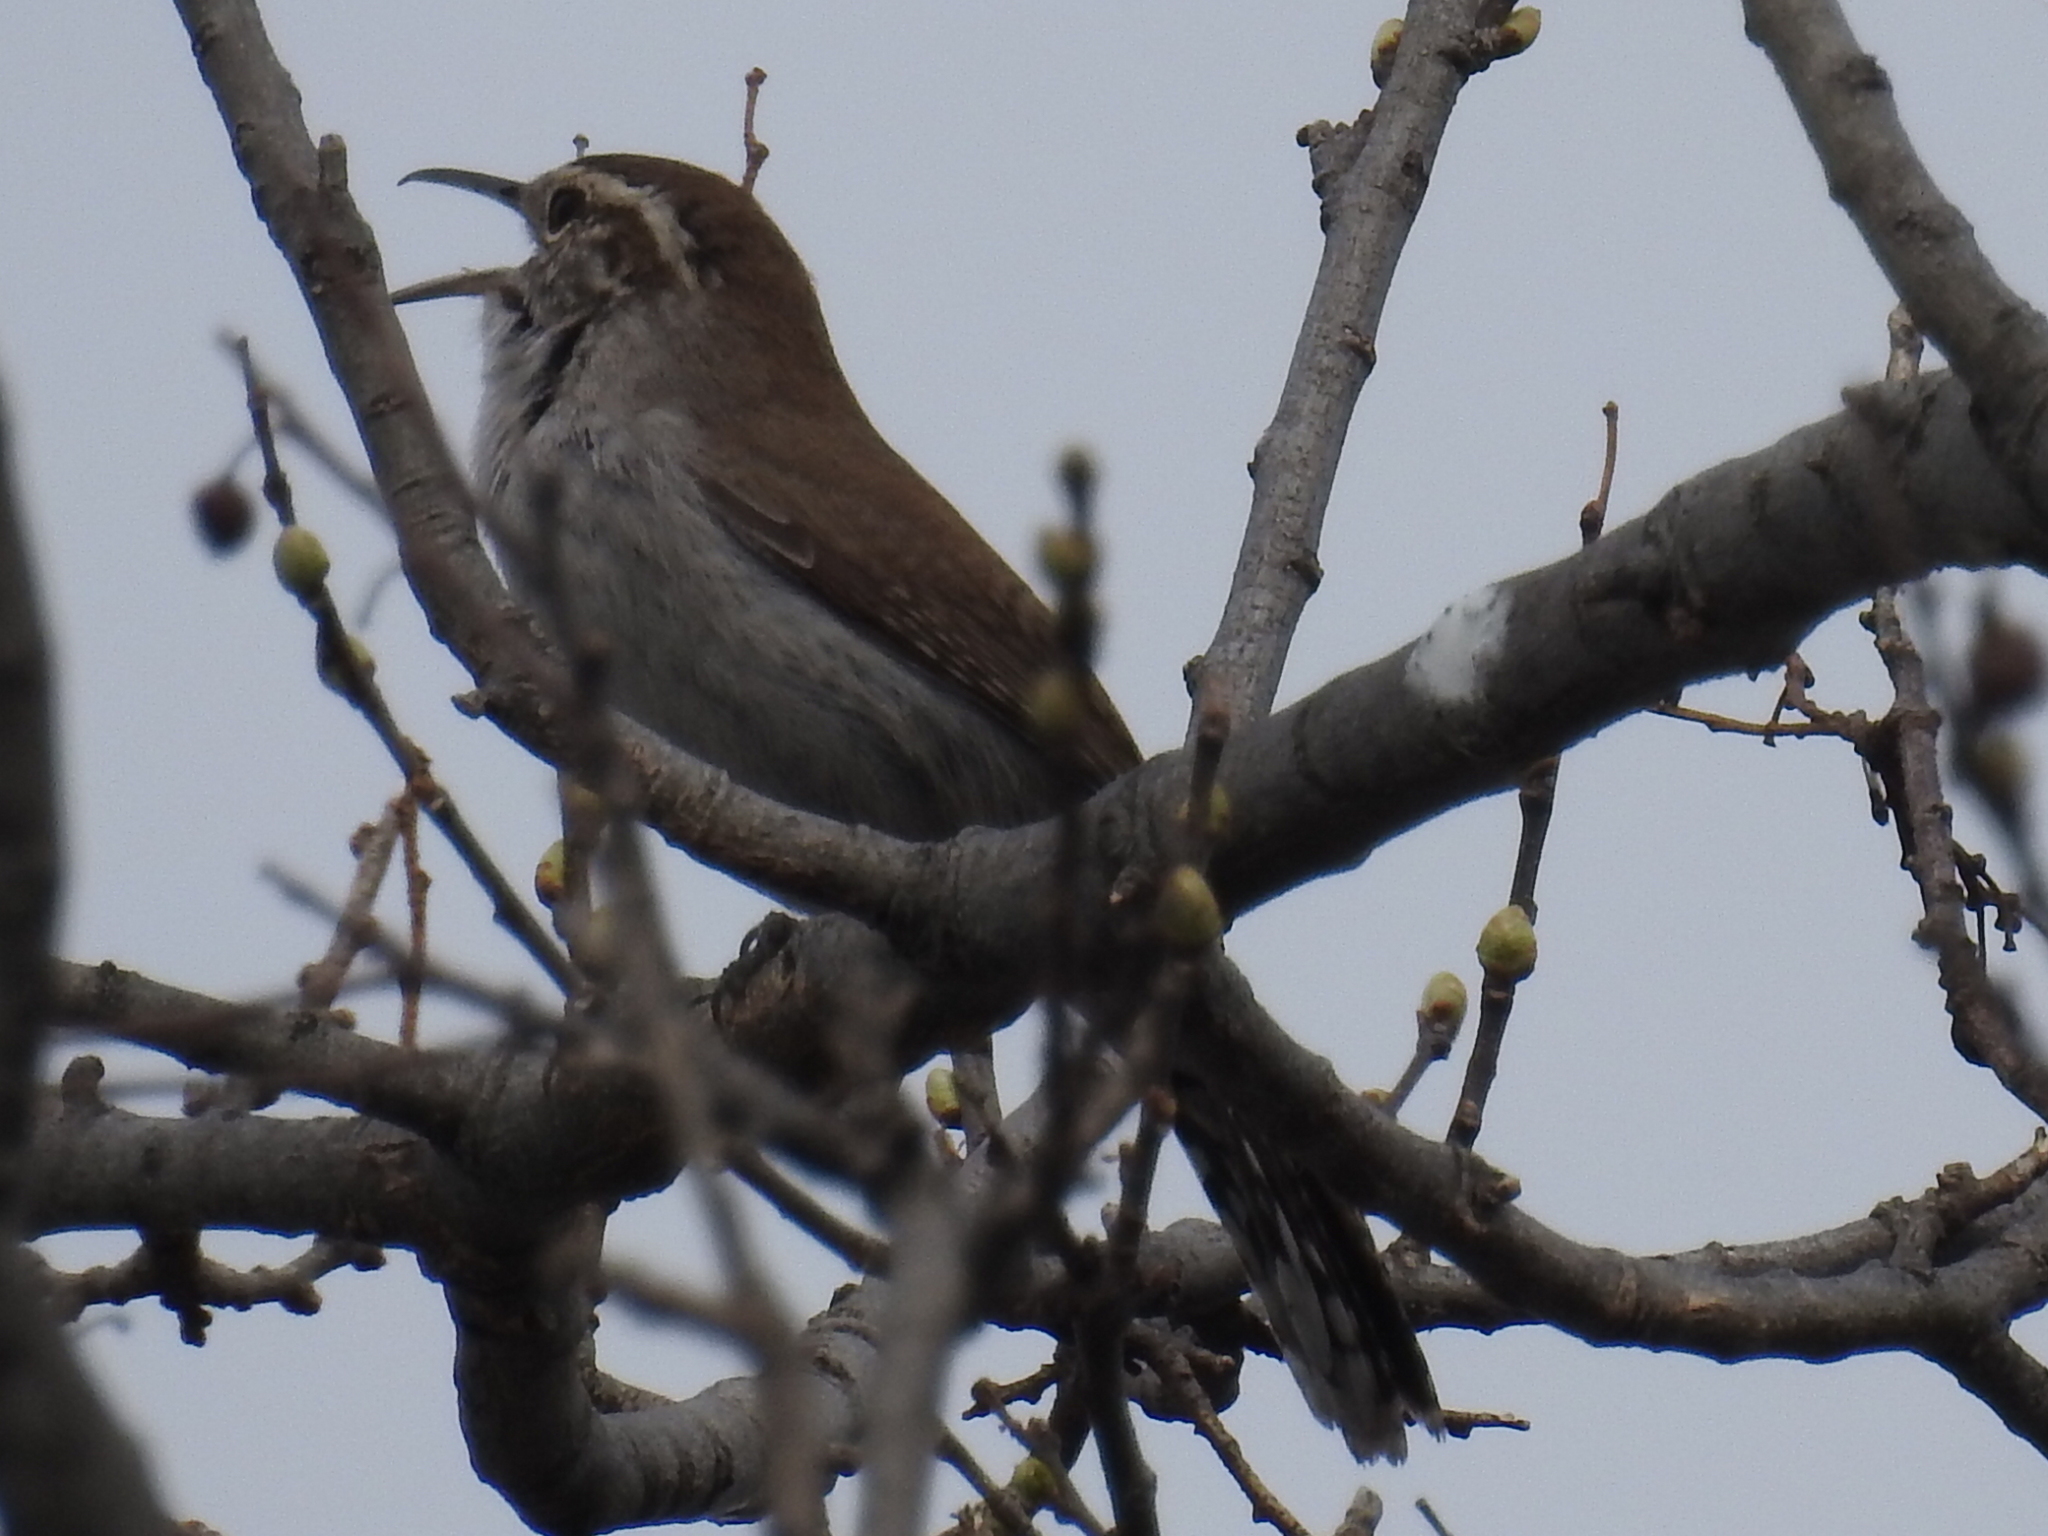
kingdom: Animalia
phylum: Chordata
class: Aves
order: Passeriformes
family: Troglodytidae
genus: Thryomanes
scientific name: Thryomanes bewickii
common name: Bewick's wren
